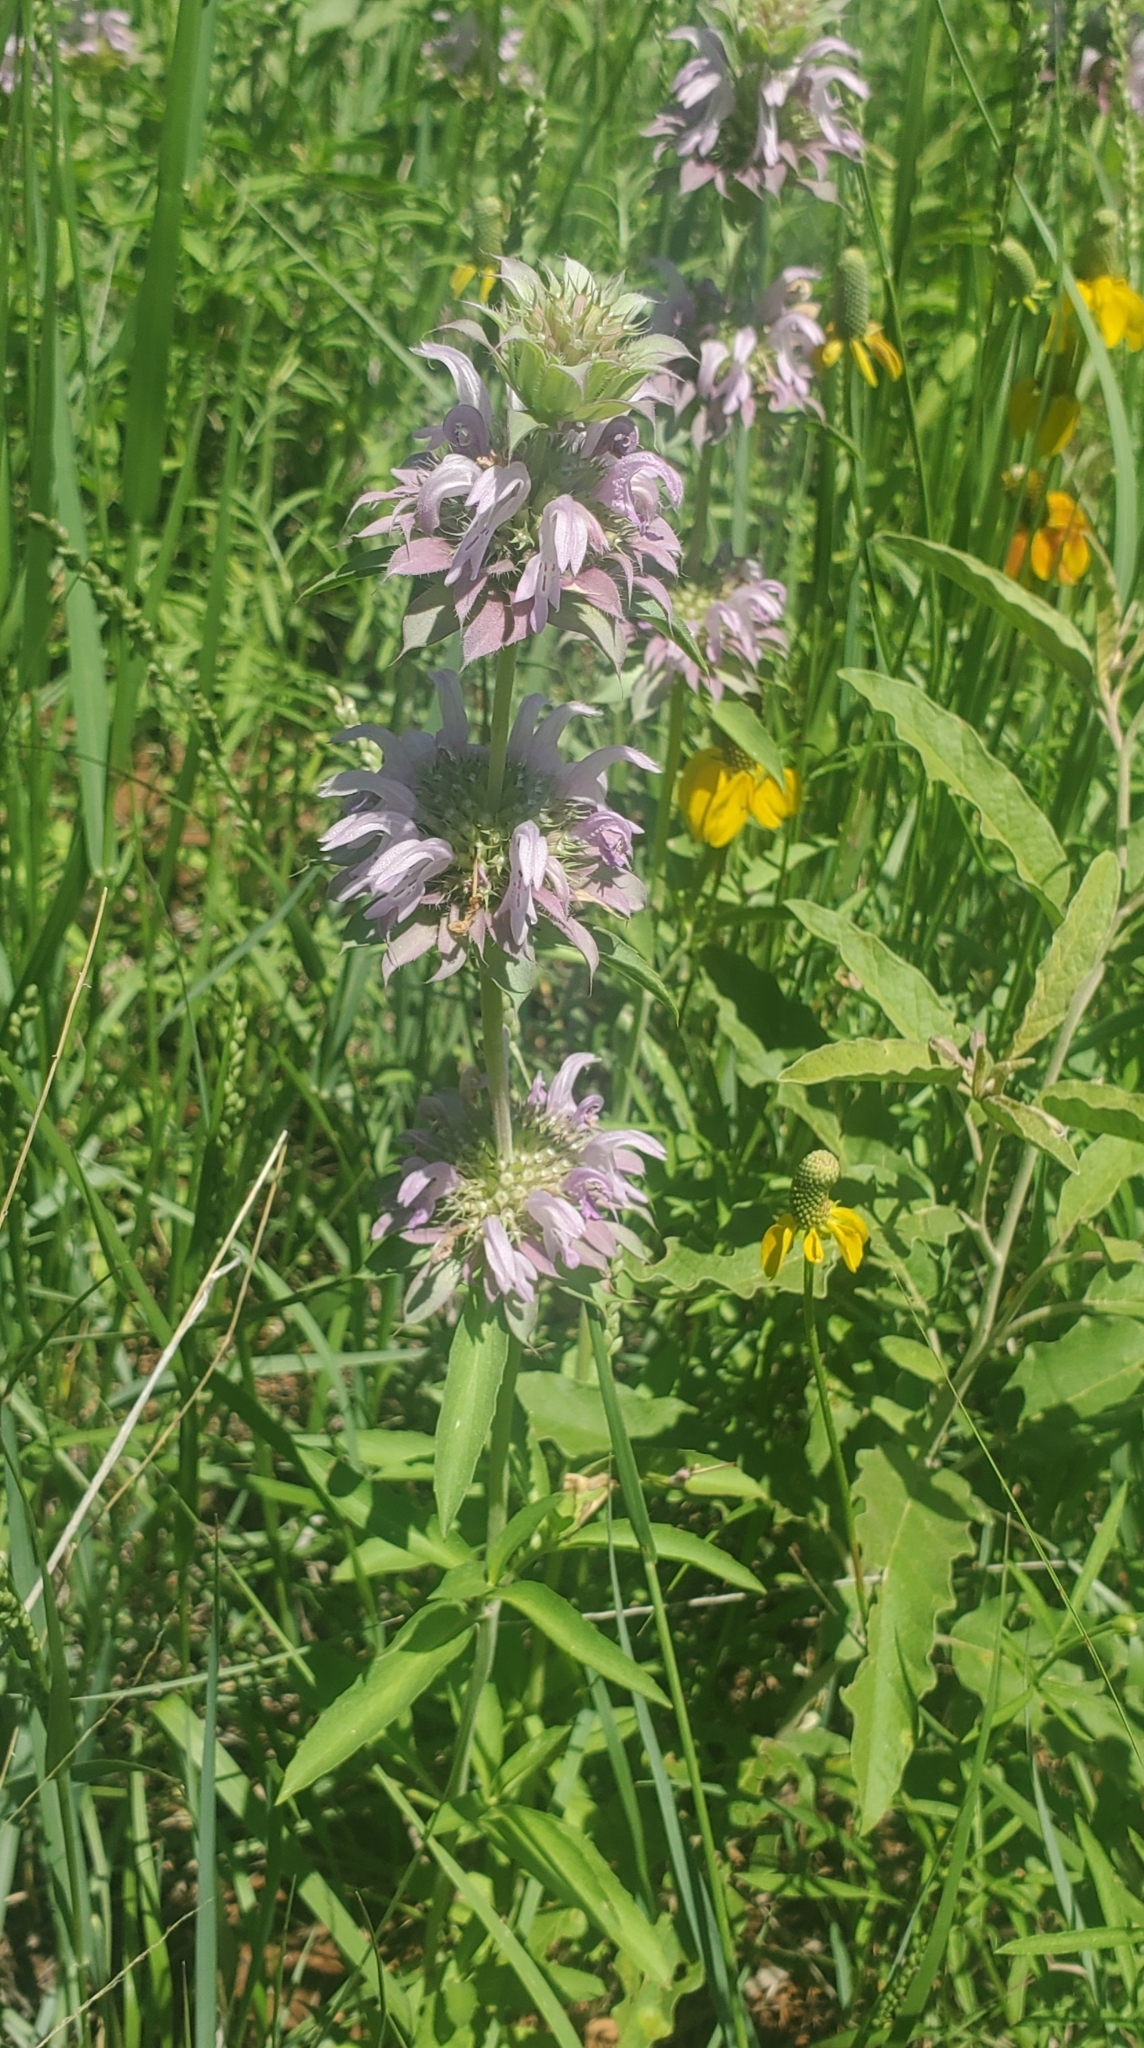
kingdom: Plantae
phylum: Tracheophyta
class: Magnoliopsida
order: Lamiales
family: Lamiaceae
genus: Monarda
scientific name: Monarda citriodora
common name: Lemon beebalm
